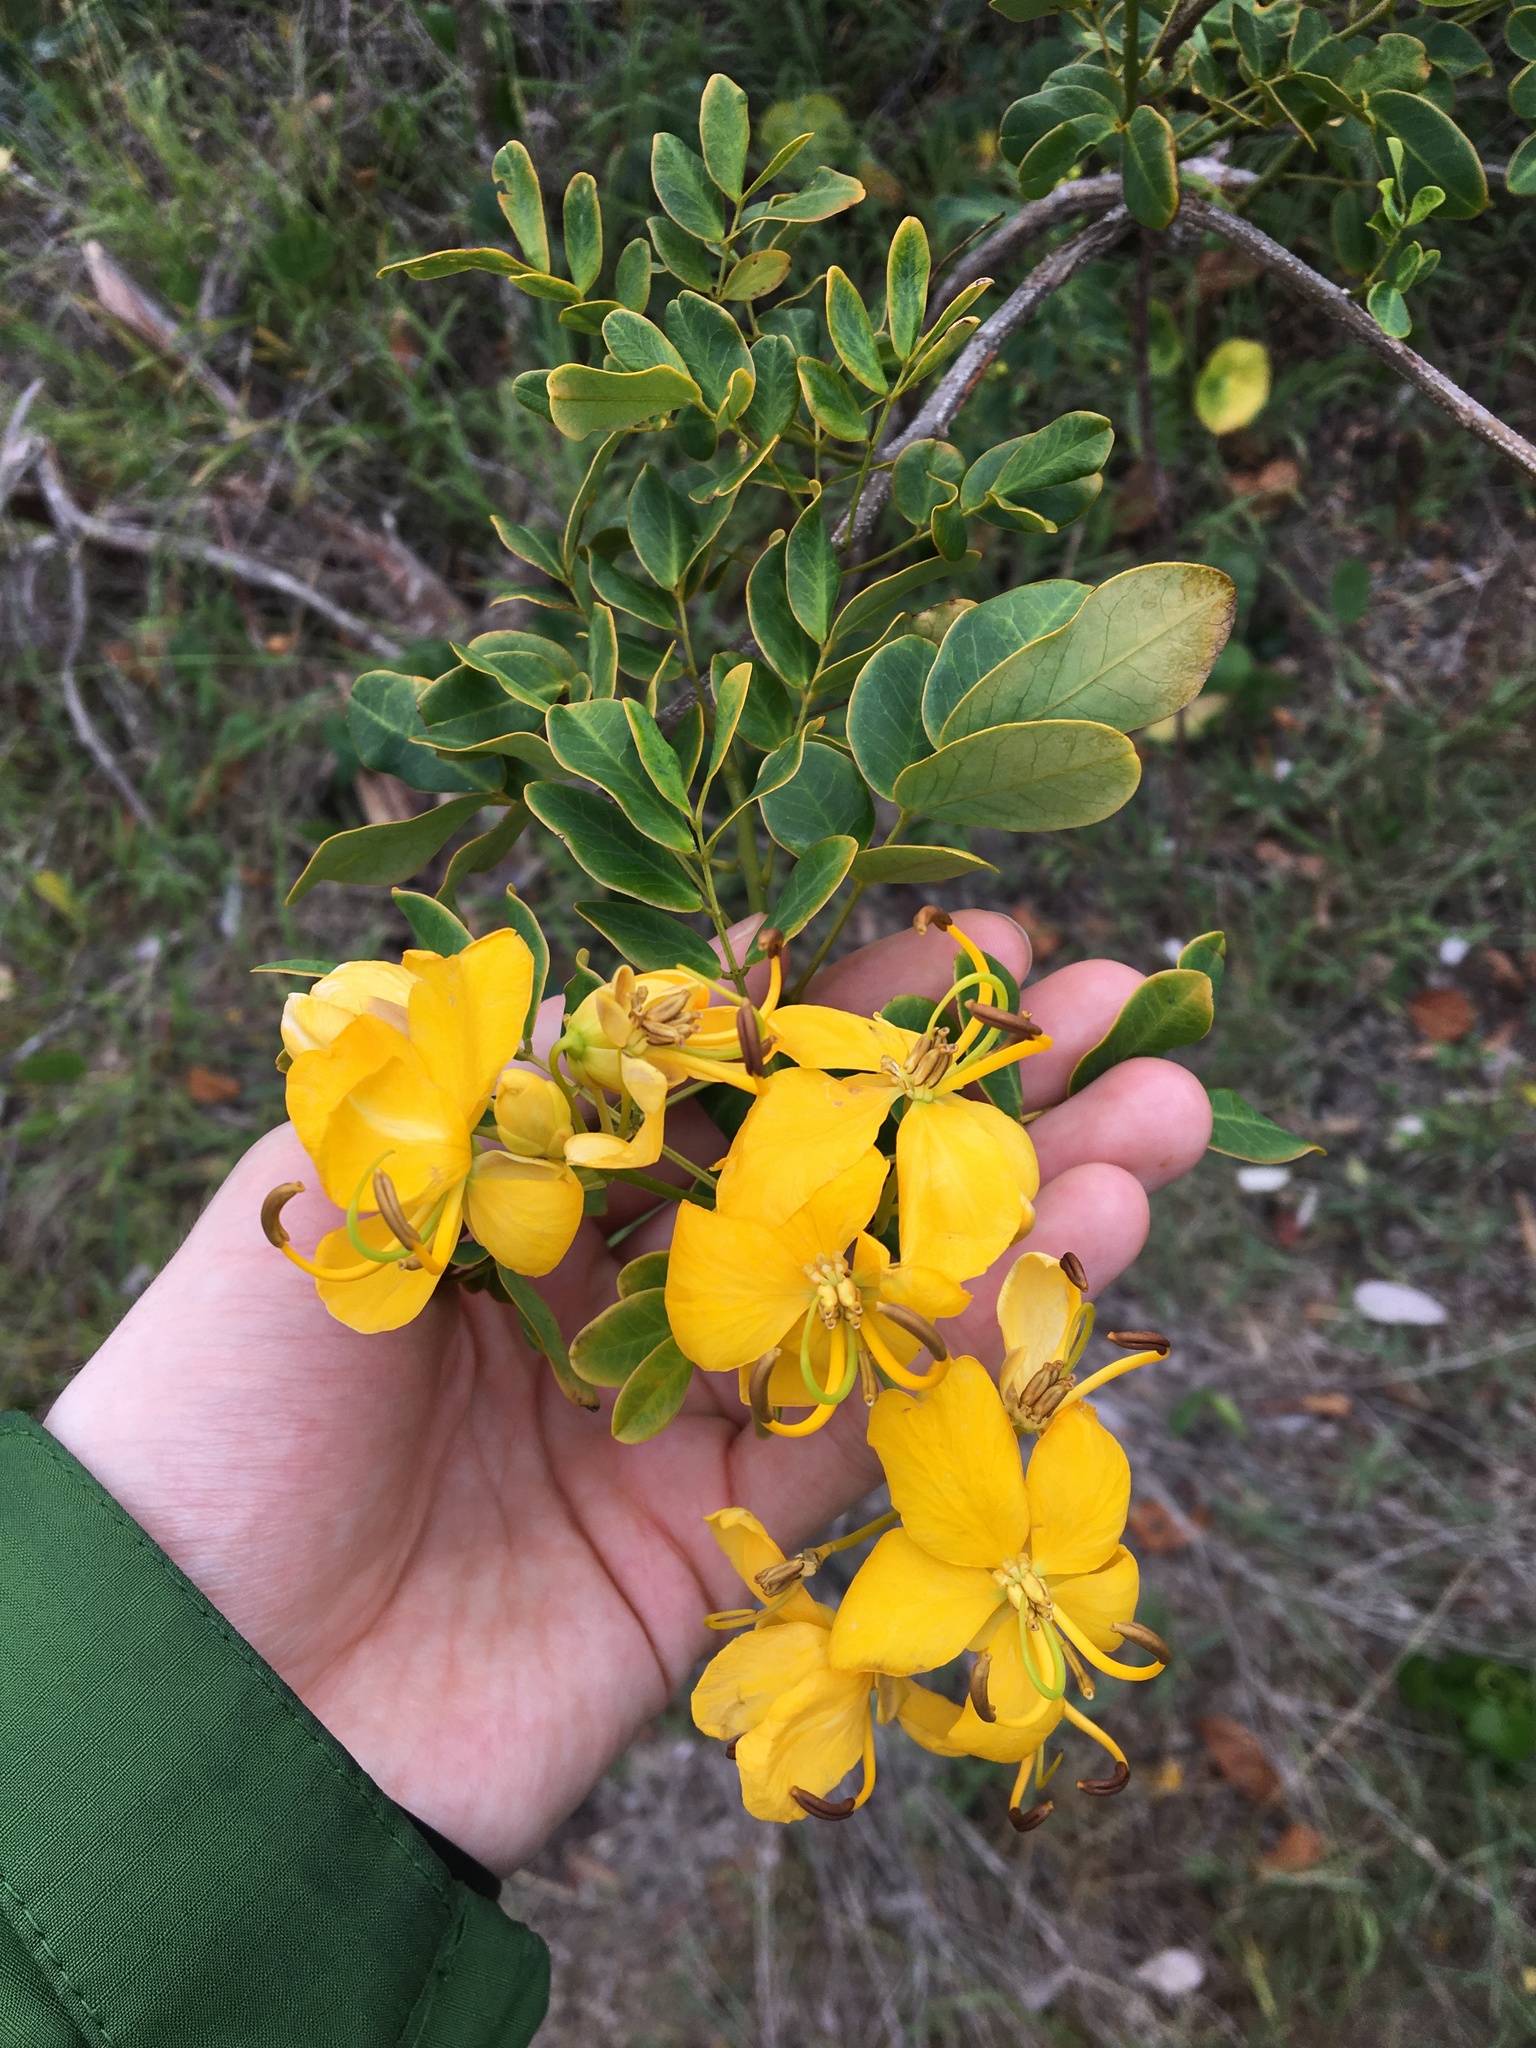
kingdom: Plantae
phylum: Tracheophyta
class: Magnoliopsida
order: Fabales
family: Fabaceae
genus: Senna
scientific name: Senna pendula
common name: Easter cassia
